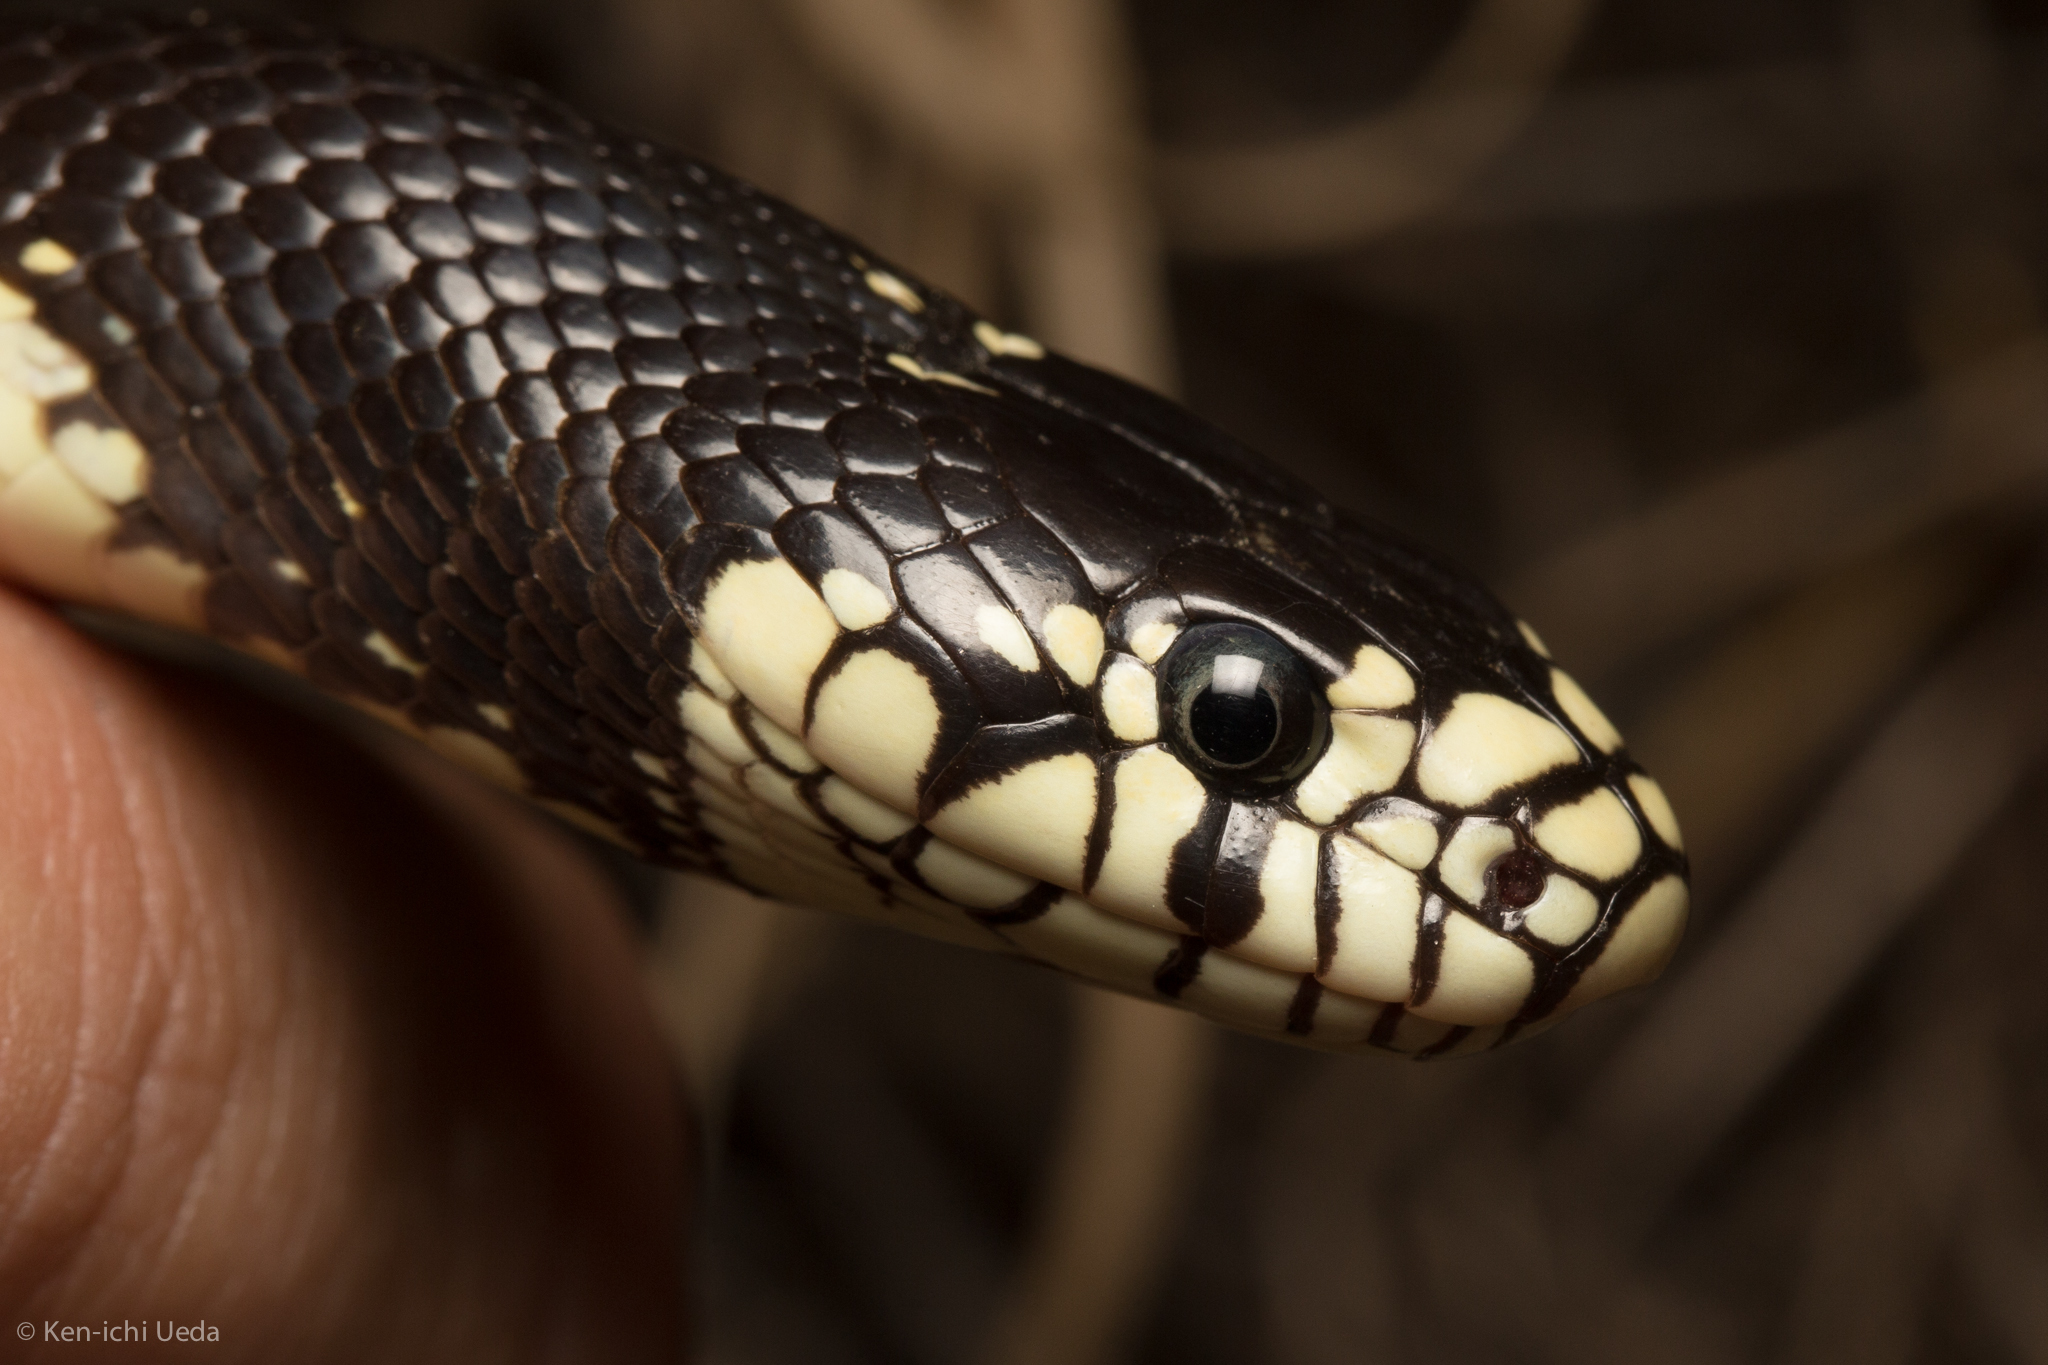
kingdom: Animalia
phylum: Chordata
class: Squamata
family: Colubridae
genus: Lampropeltis
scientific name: Lampropeltis californiae
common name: California kingsnake
